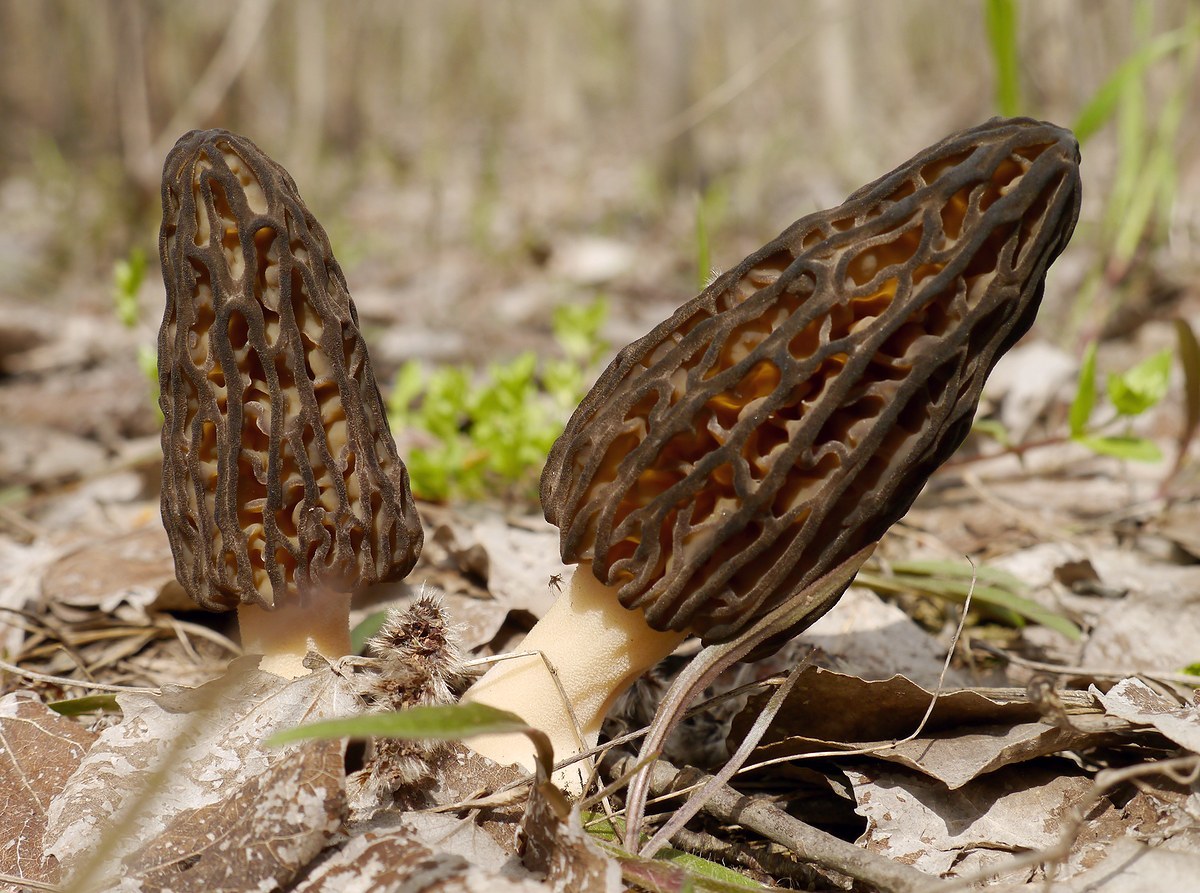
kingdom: Fungi
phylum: Ascomycota
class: Pezizomycetes
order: Pezizales
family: Morchellaceae
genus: Morchella
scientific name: Morchella
